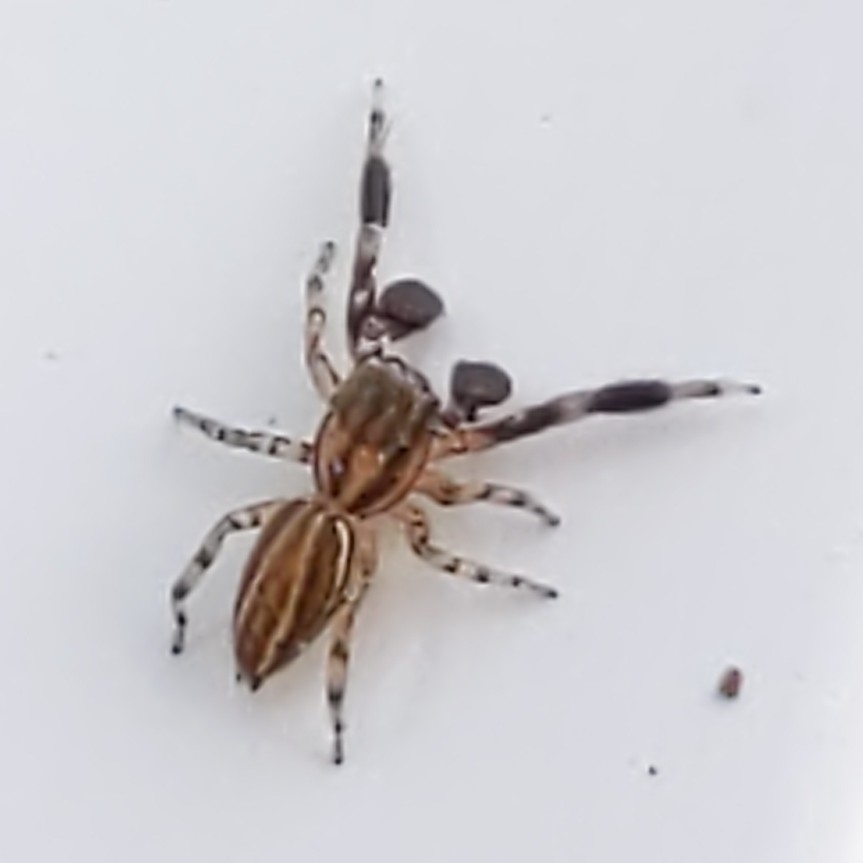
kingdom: Animalia
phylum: Arthropoda
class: Arachnida
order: Araneae
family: Salticidae
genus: Marpissa
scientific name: Marpissa lineata
